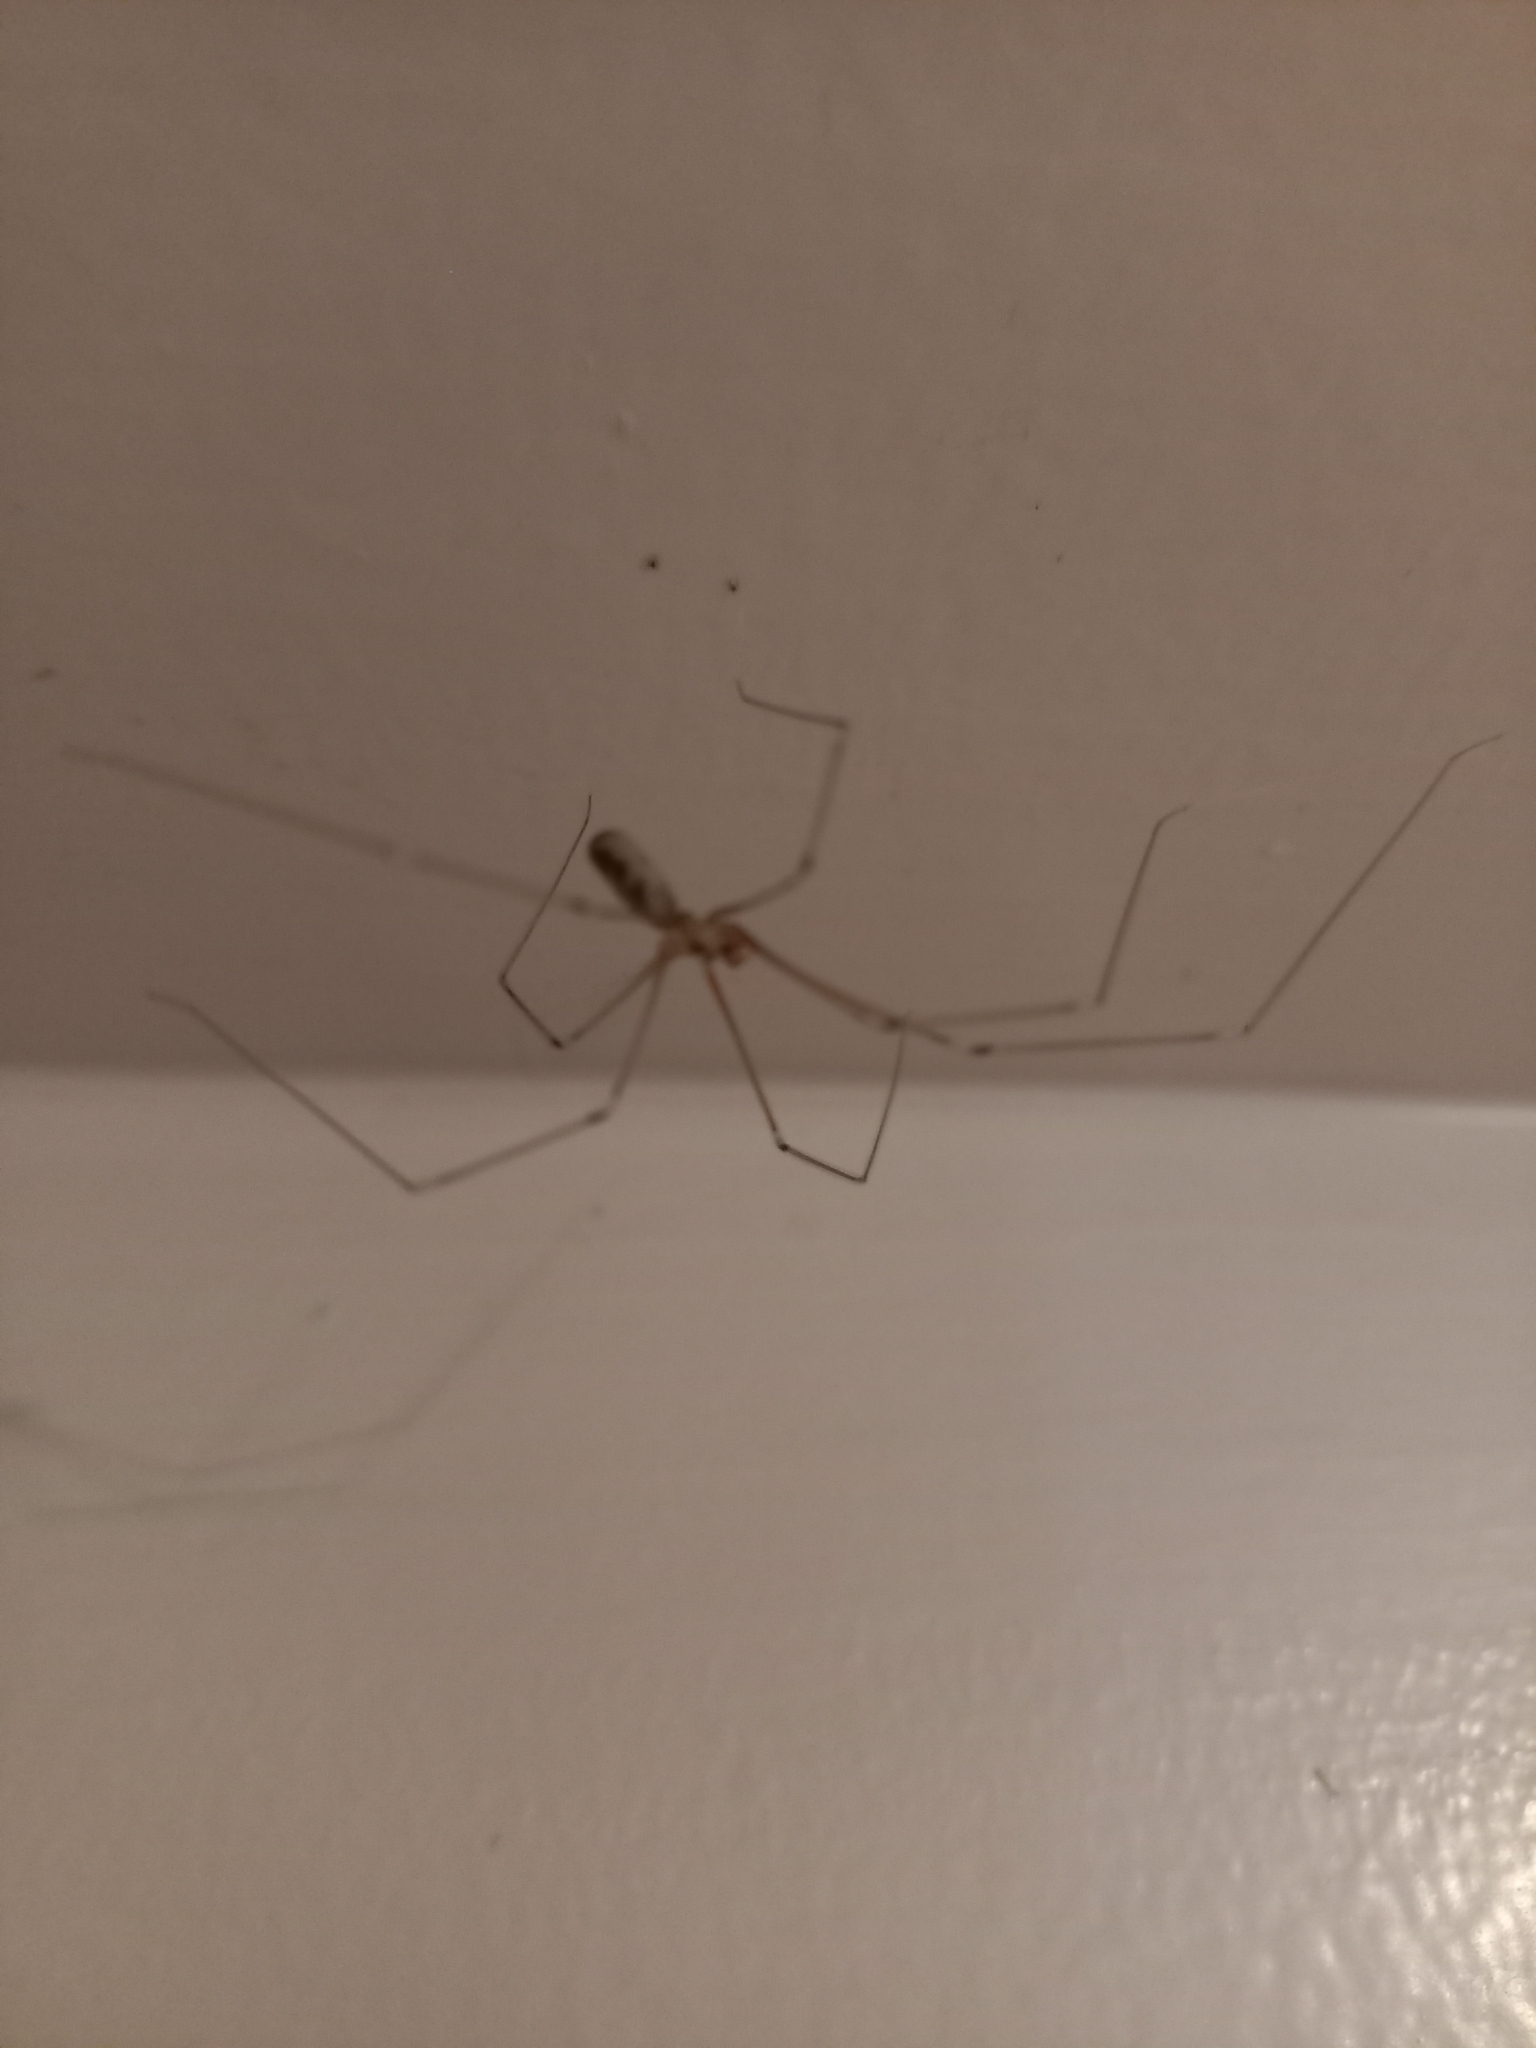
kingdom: Animalia
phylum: Arthropoda
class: Arachnida
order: Araneae
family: Pholcidae
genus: Pholcus
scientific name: Pholcus phalangioides
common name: Longbodied cellar spider
